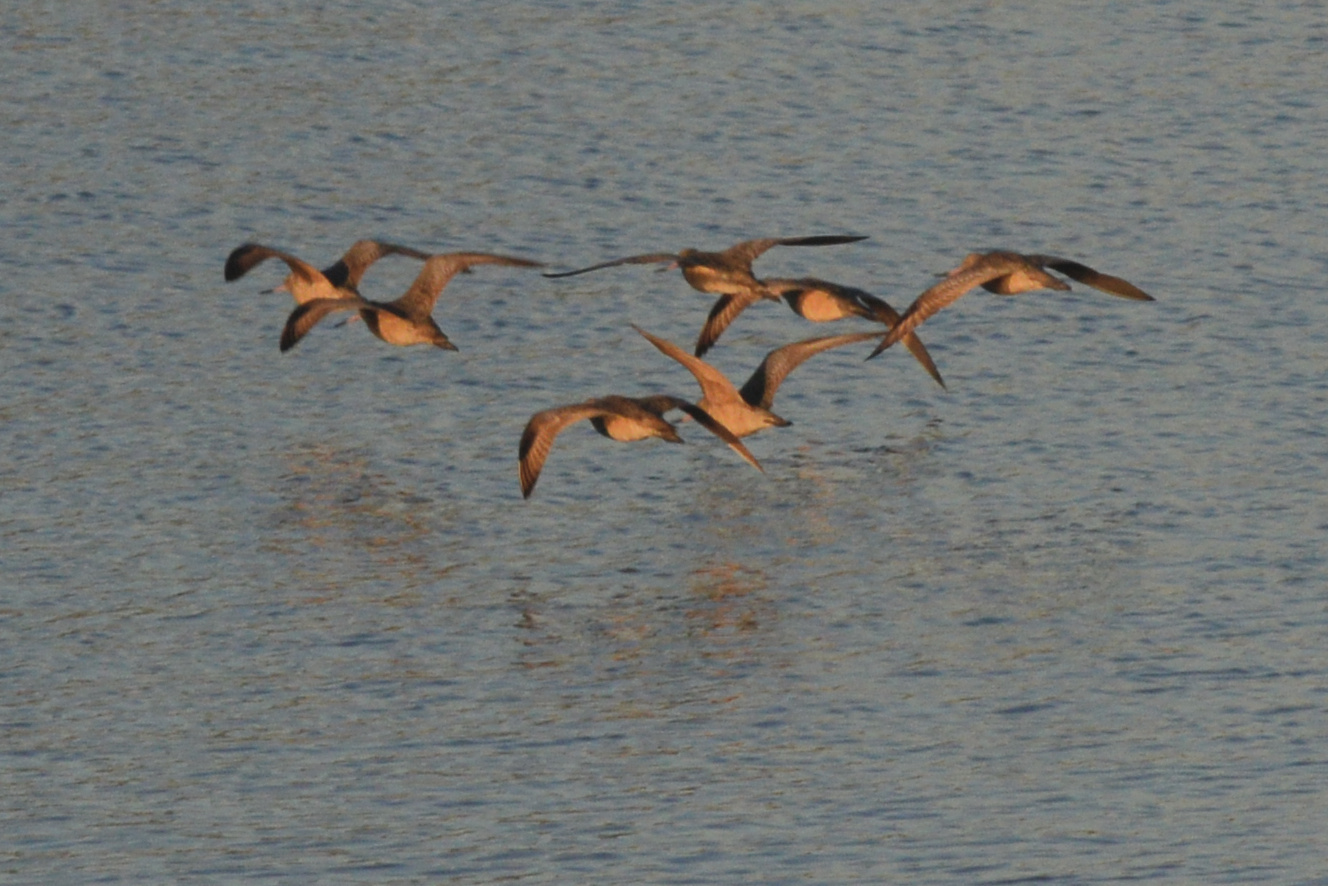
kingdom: Animalia
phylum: Chordata
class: Aves
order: Charadriiformes
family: Scolopacidae
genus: Limosa
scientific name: Limosa fedoa
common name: Marbled godwit
